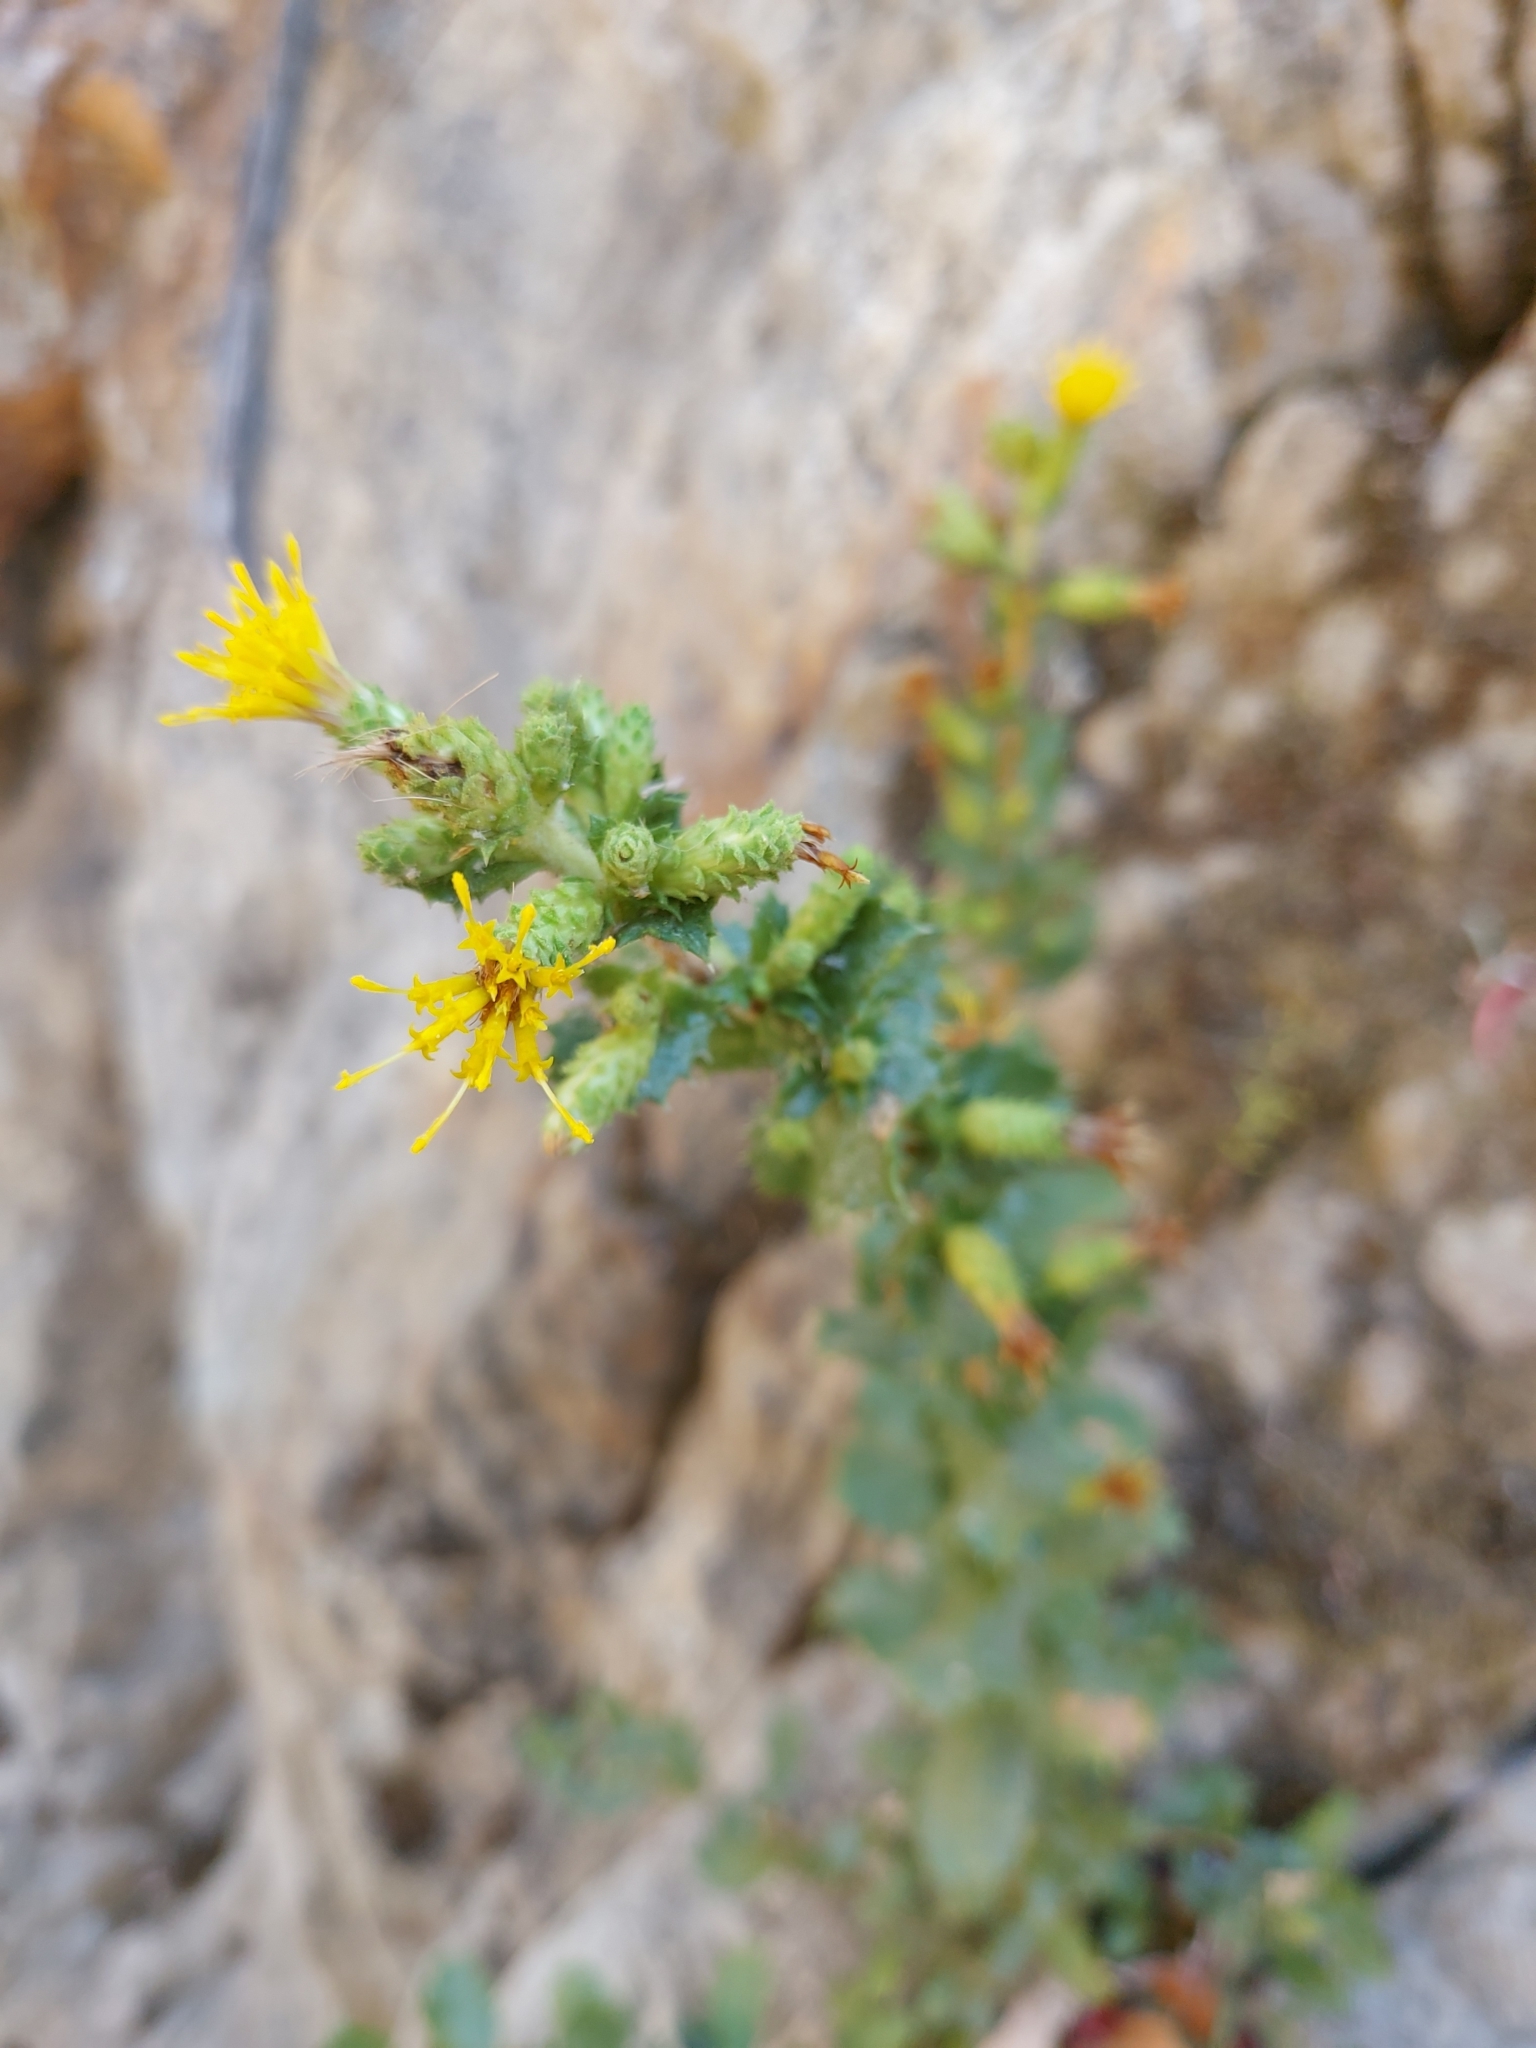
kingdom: Plantae
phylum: Tracheophyta
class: Magnoliopsida
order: Asterales
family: Asteraceae
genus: Hazardia
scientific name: Hazardia squarrosa
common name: Saw-tooth goldenbush
